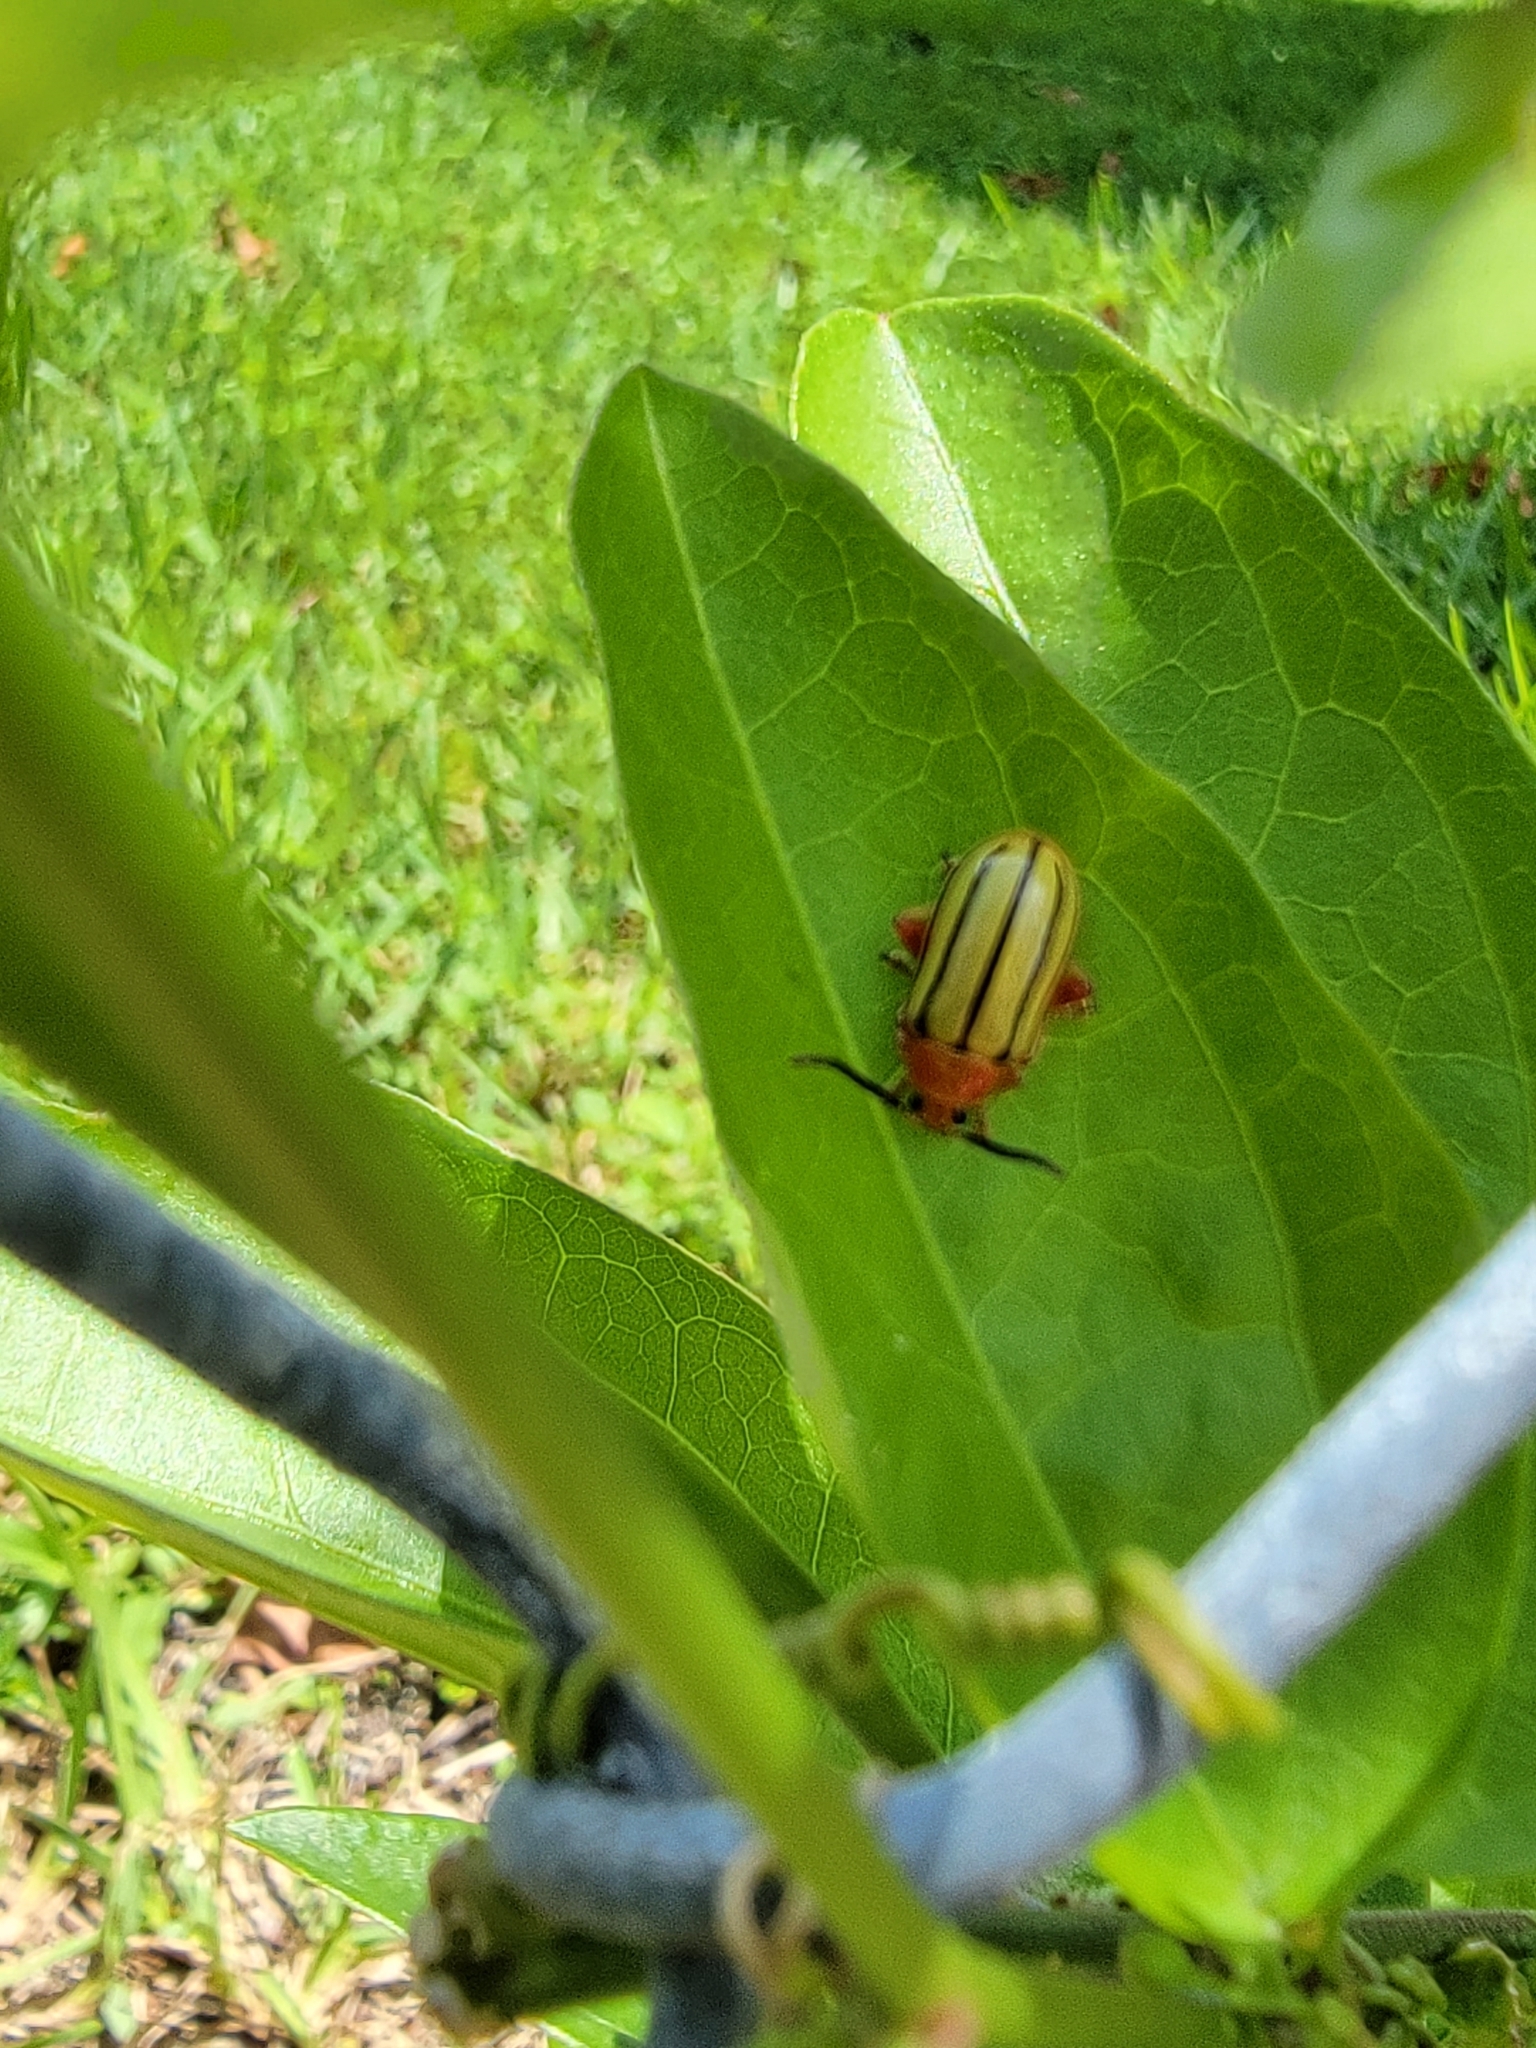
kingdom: Animalia
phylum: Arthropoda
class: Insecta
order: Coleoptera
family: Chrysomelidae
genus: Disonycha
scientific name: Disonycha
